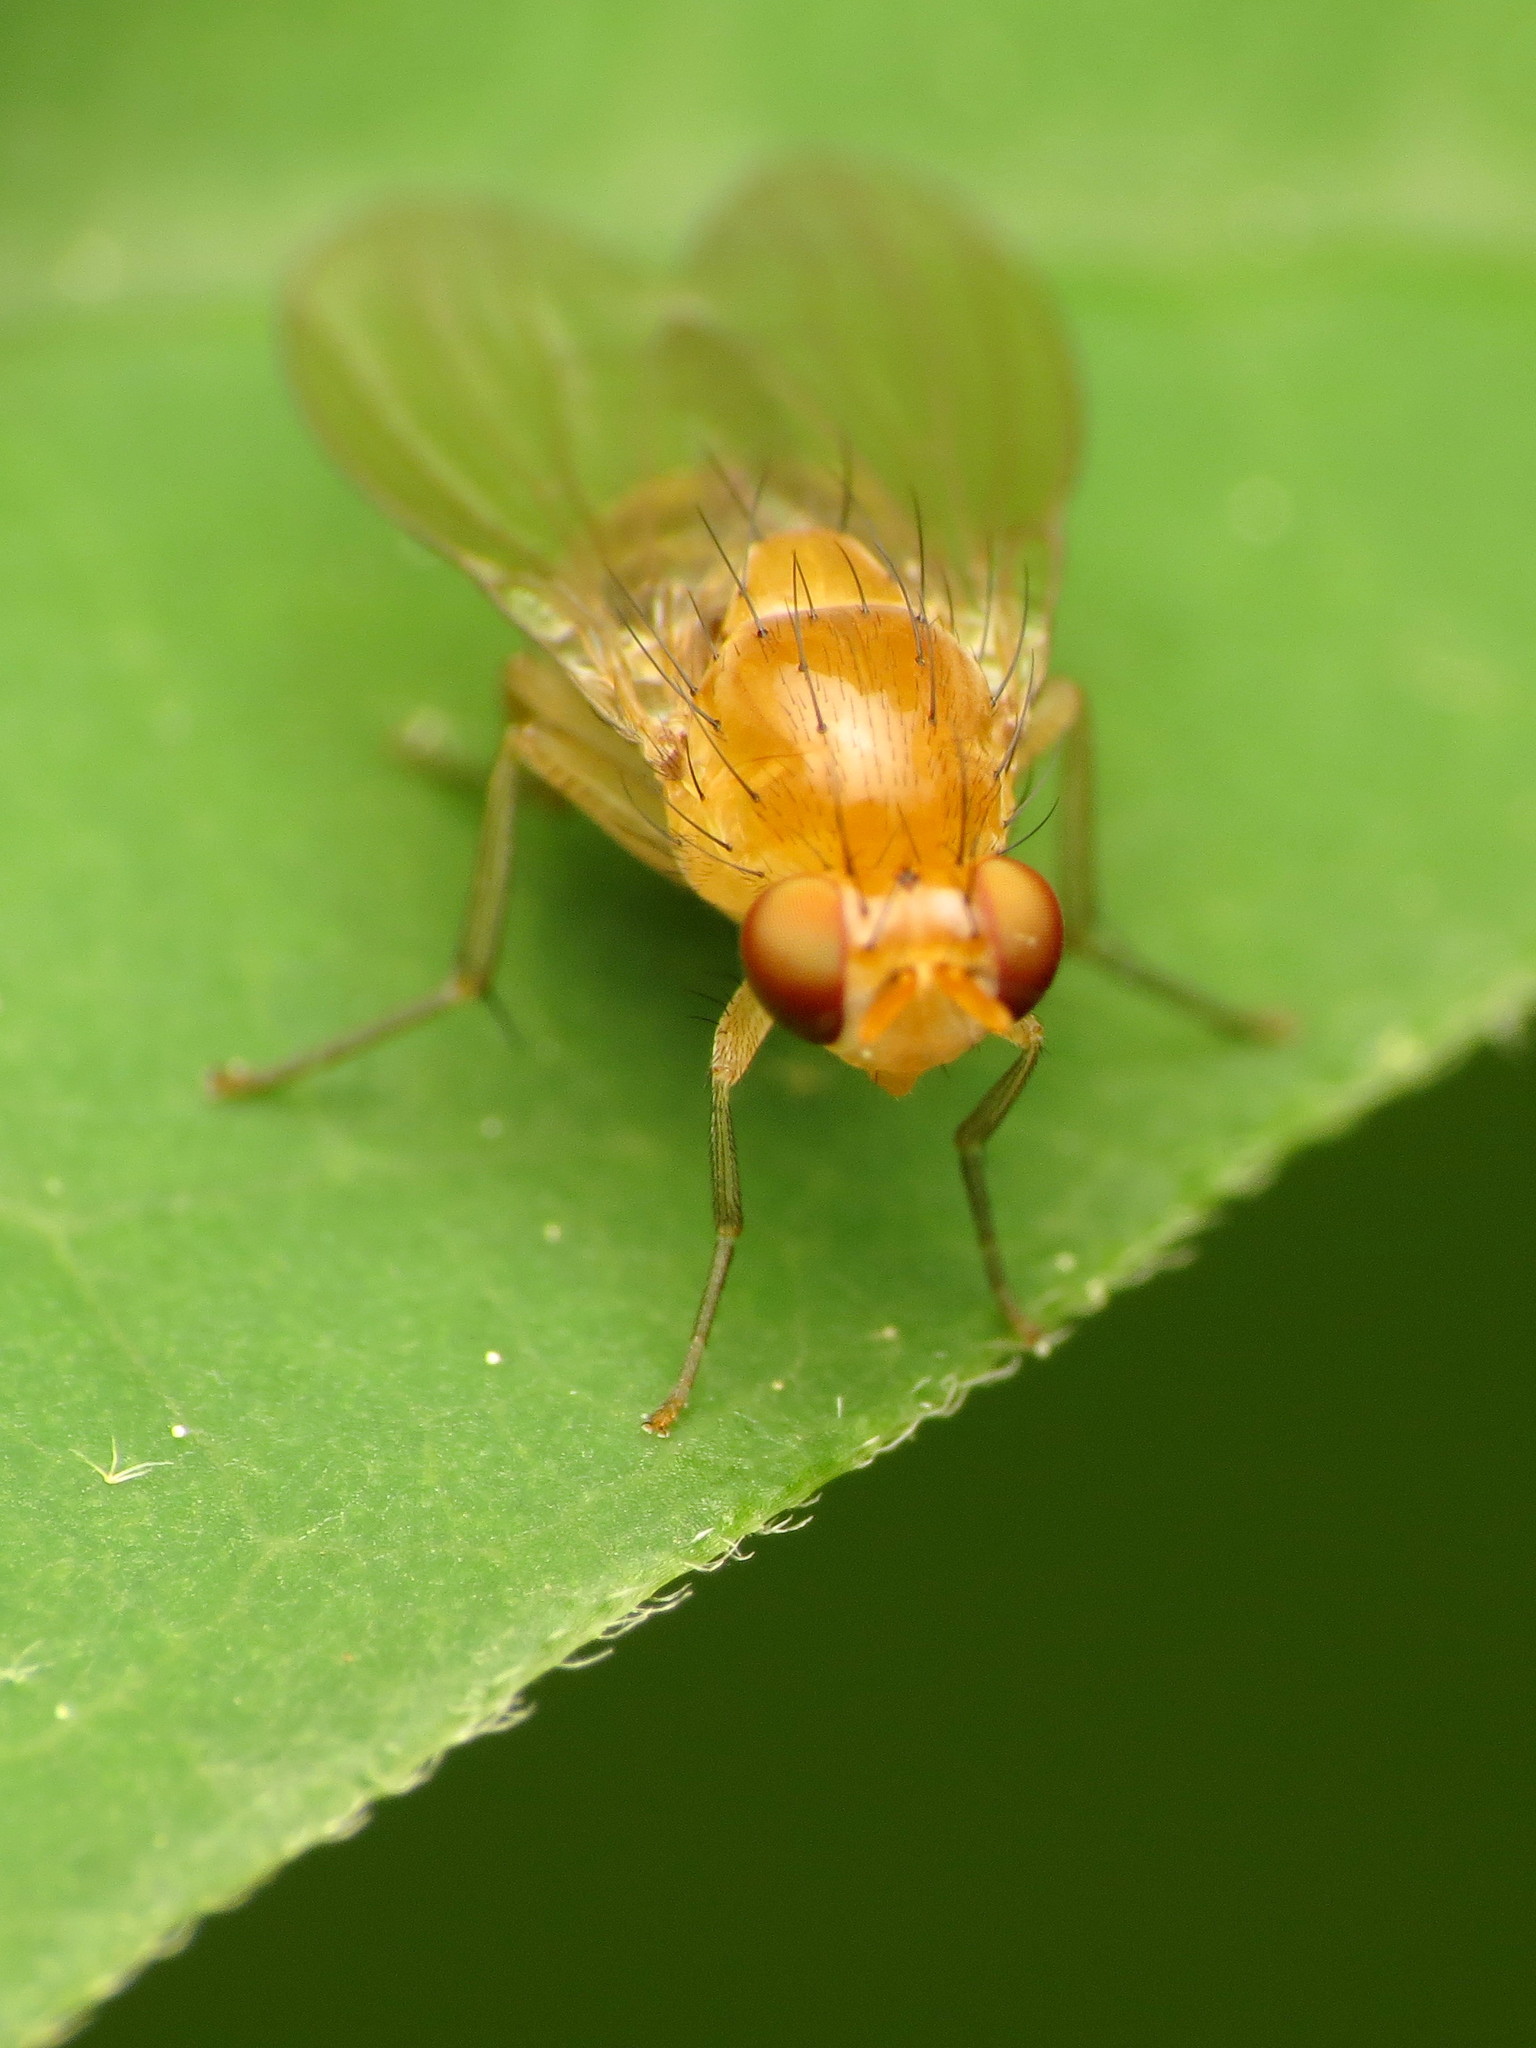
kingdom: Animalia
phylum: Arthropoda
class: Insecta
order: Diptera
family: Lauxaniidae
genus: Neogriphoneura
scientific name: Neogriphoneura sordida
